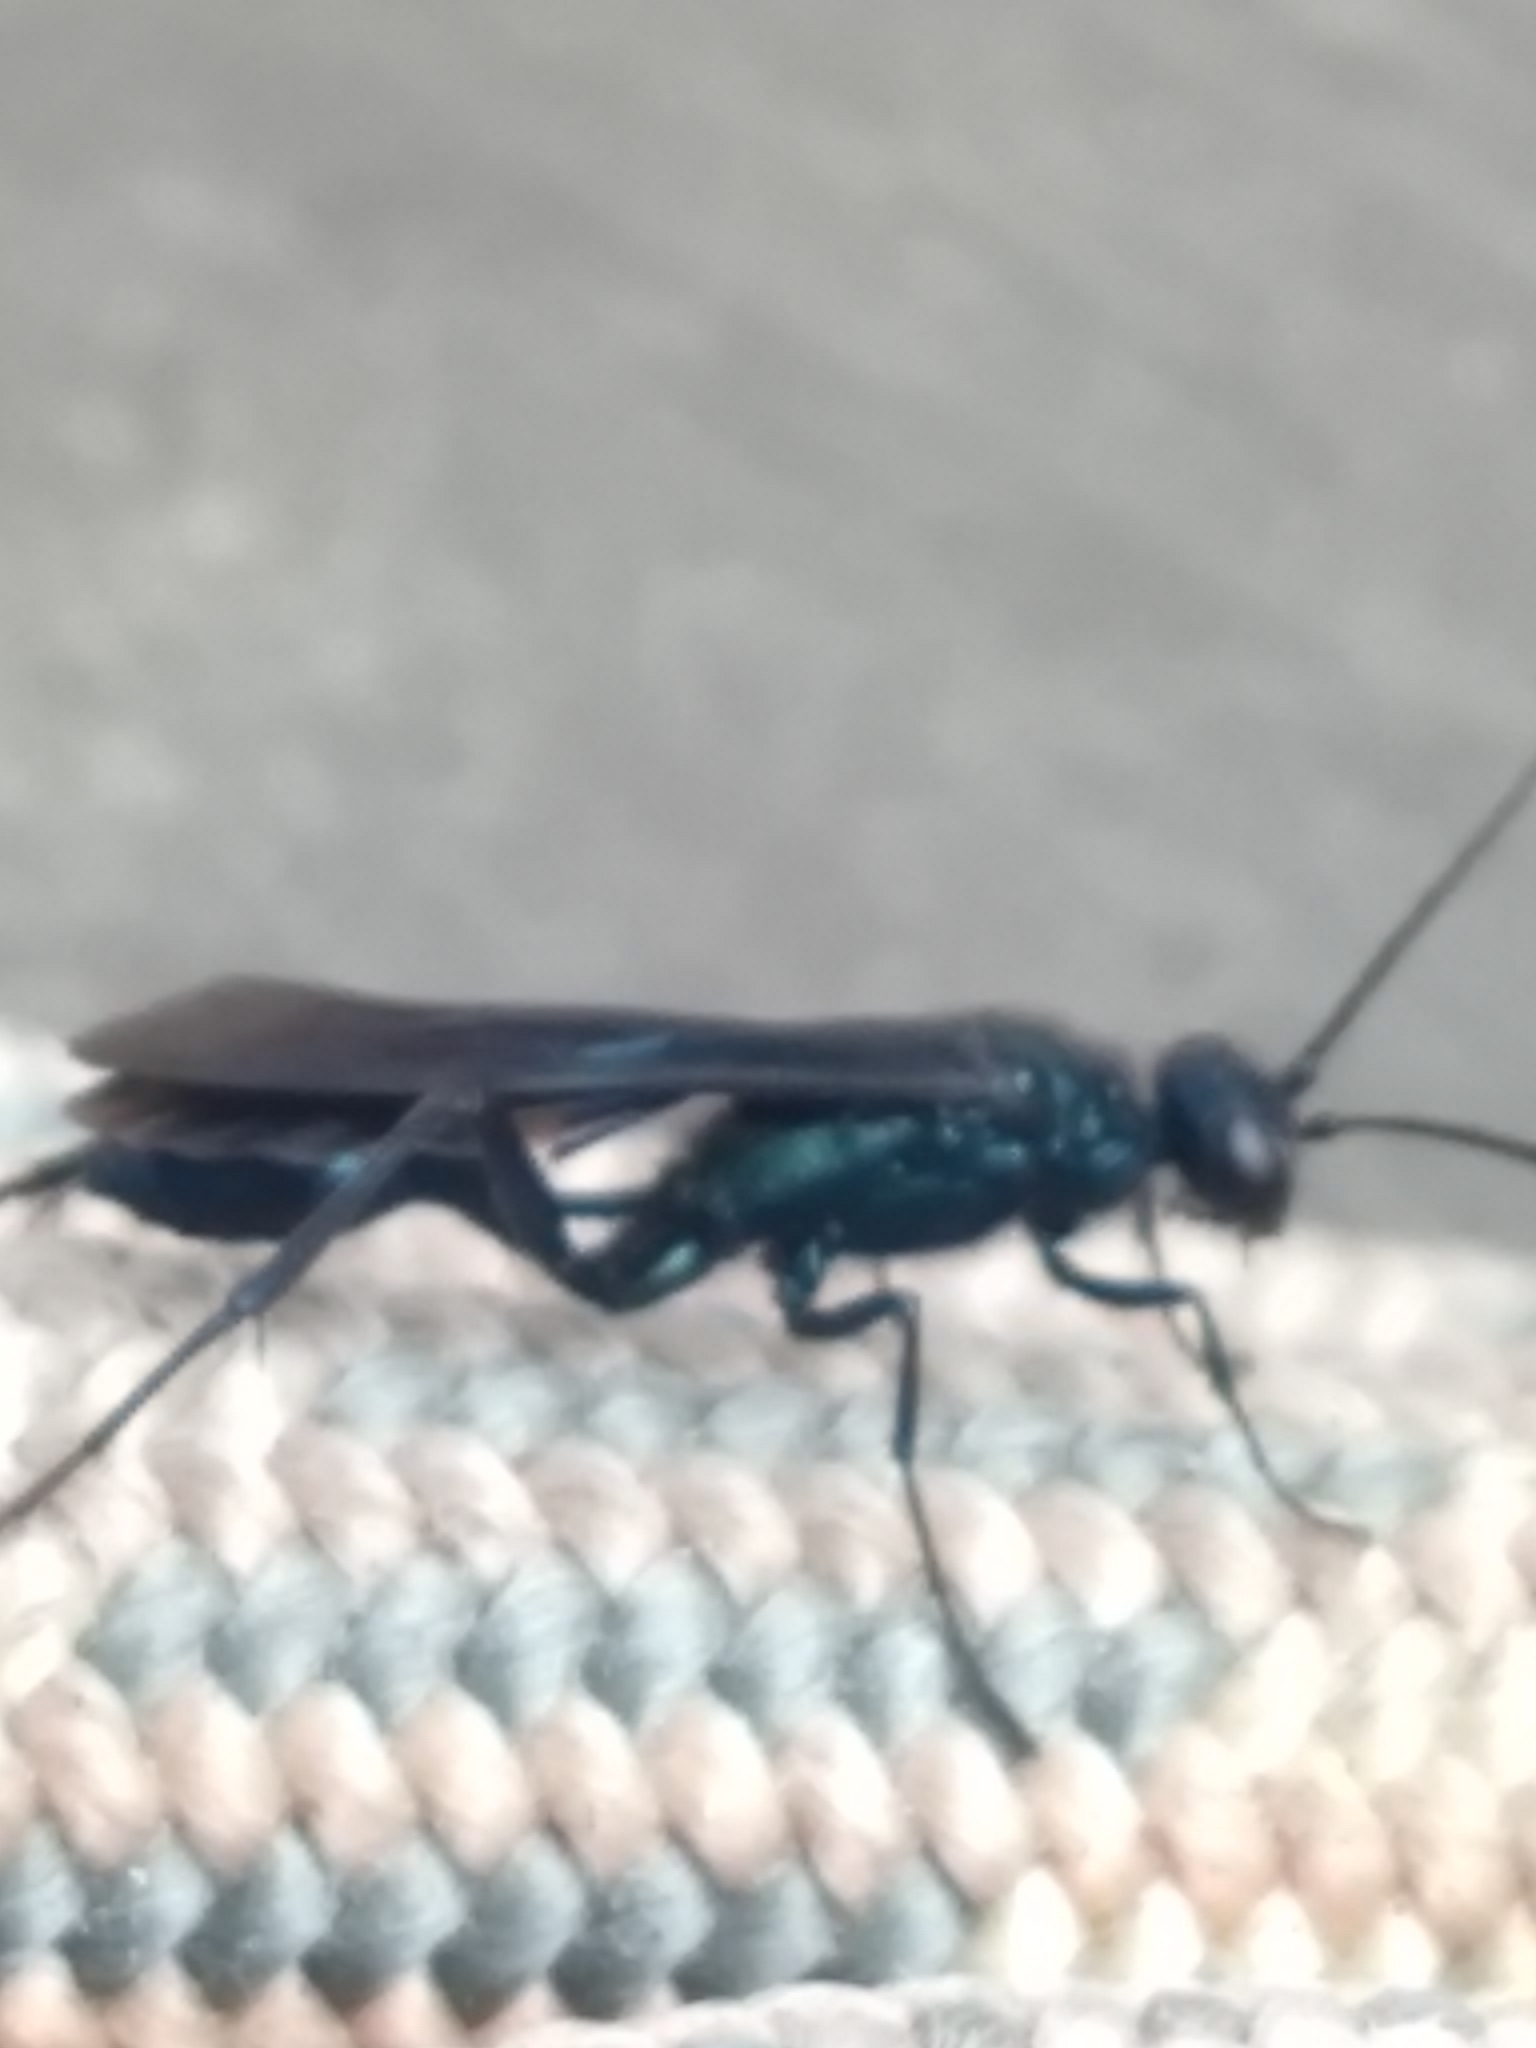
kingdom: Animalia
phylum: Arthropoda
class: Insecta
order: Hymenoptera
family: Sphecidae
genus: Chalybion
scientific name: Chalybion californicum
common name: Mud dauber
